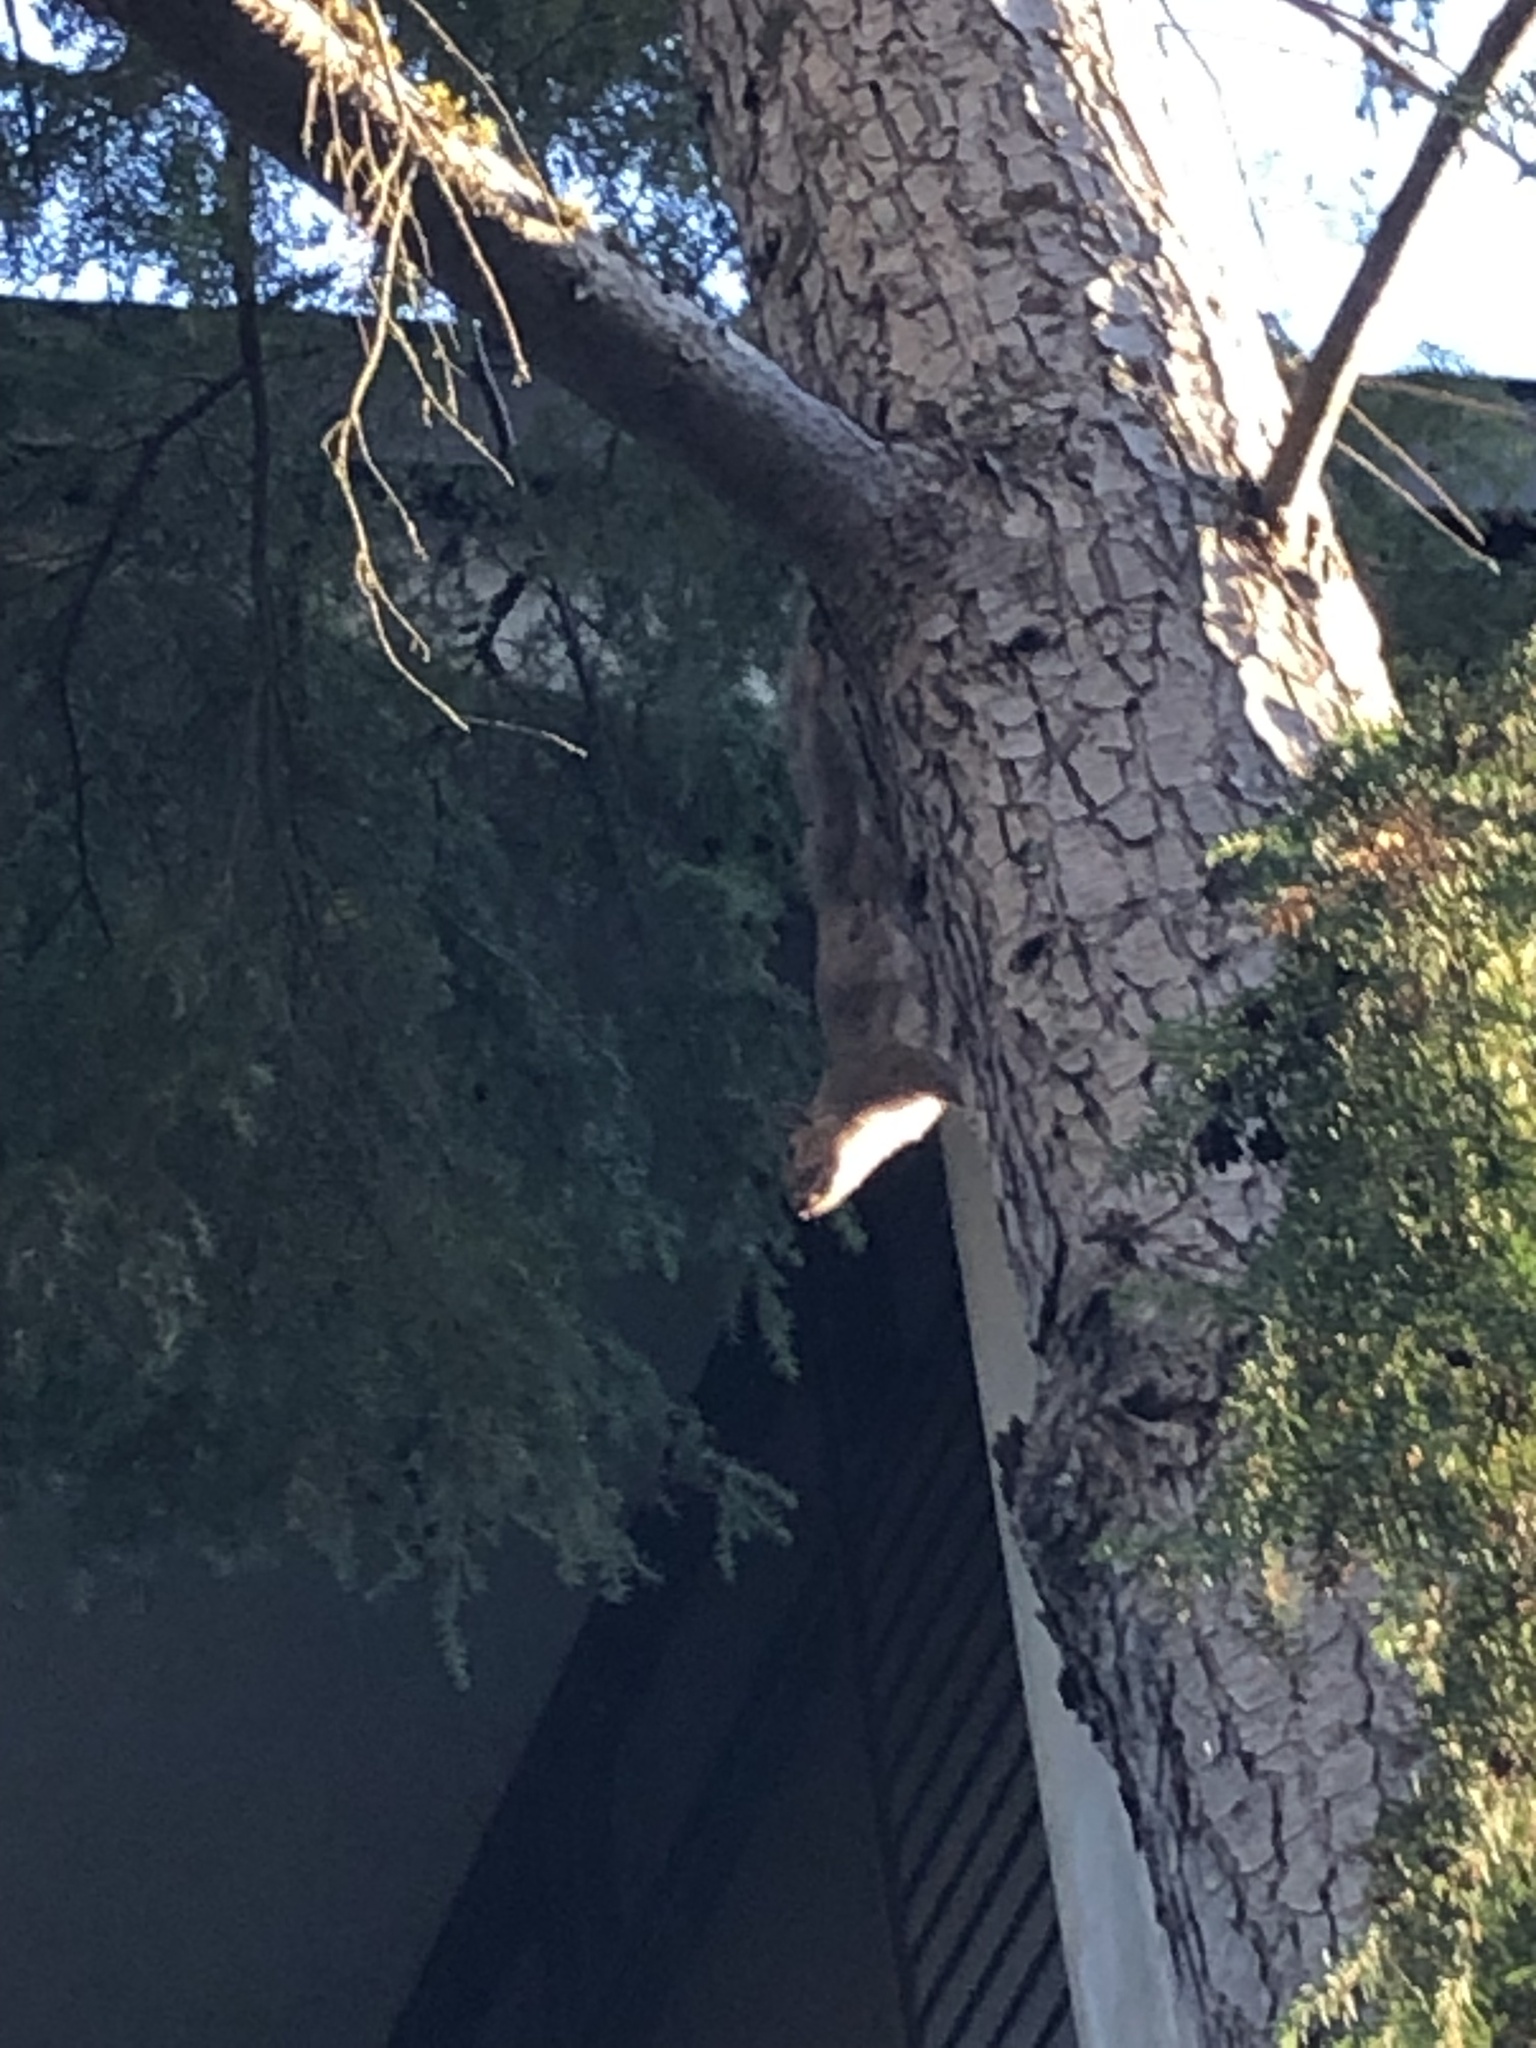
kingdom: Animalia
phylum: Chordata
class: Mammalia
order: Rodentia
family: Sciuridae
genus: Sciurus
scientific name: Sciurus carolinensis
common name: Eastern gray squirrel
